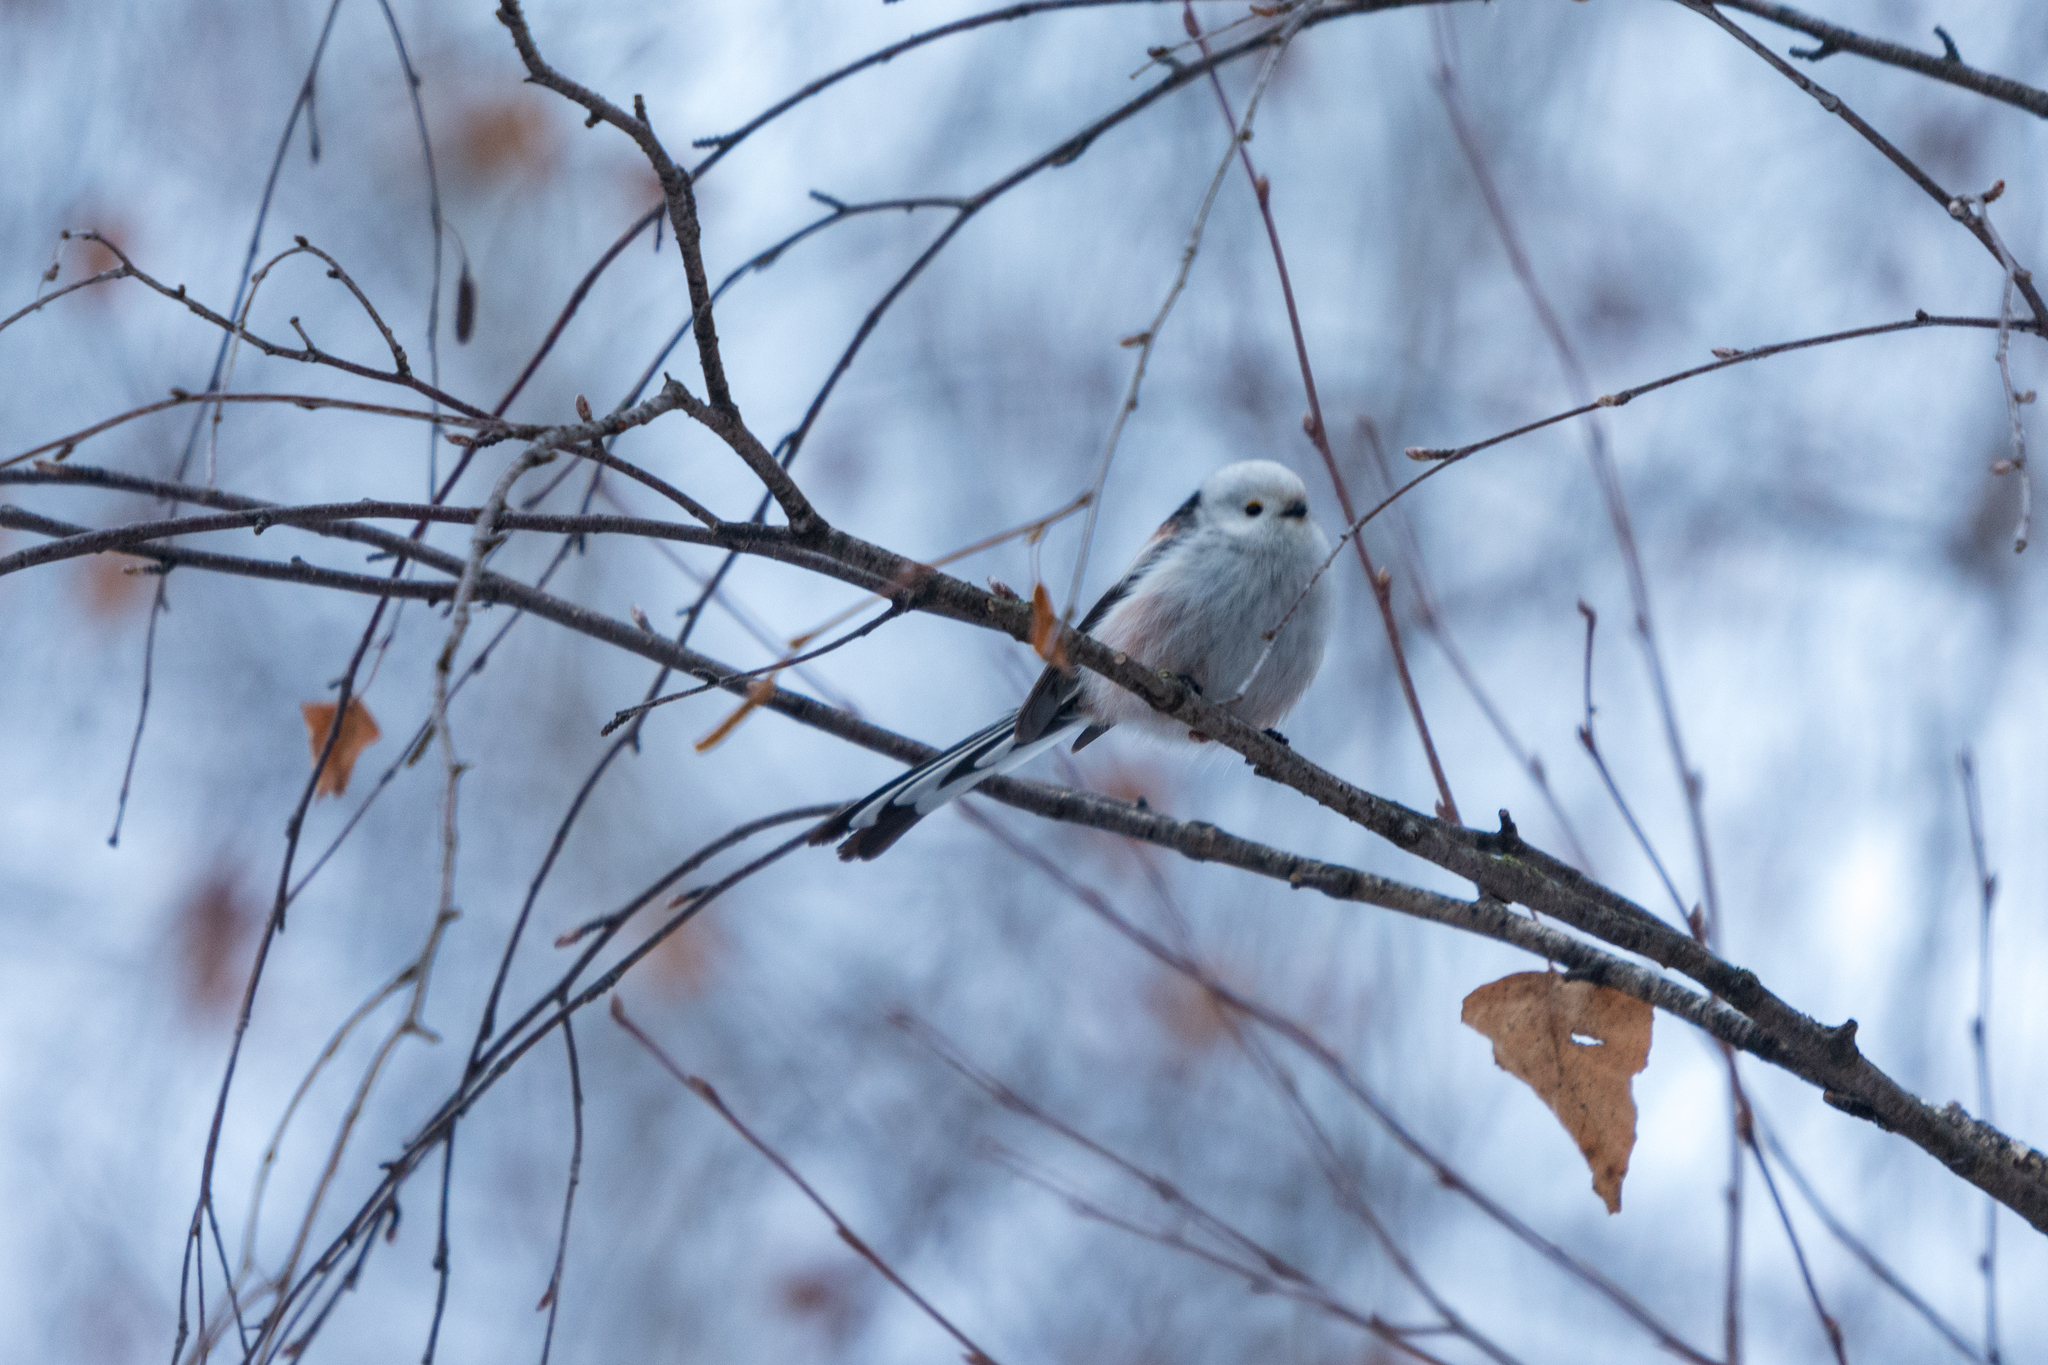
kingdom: Animalia
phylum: Chordata
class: Aves
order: Passeriformes
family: Aegithalidae
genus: Aegithalos
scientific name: Aegithalos caudatus
